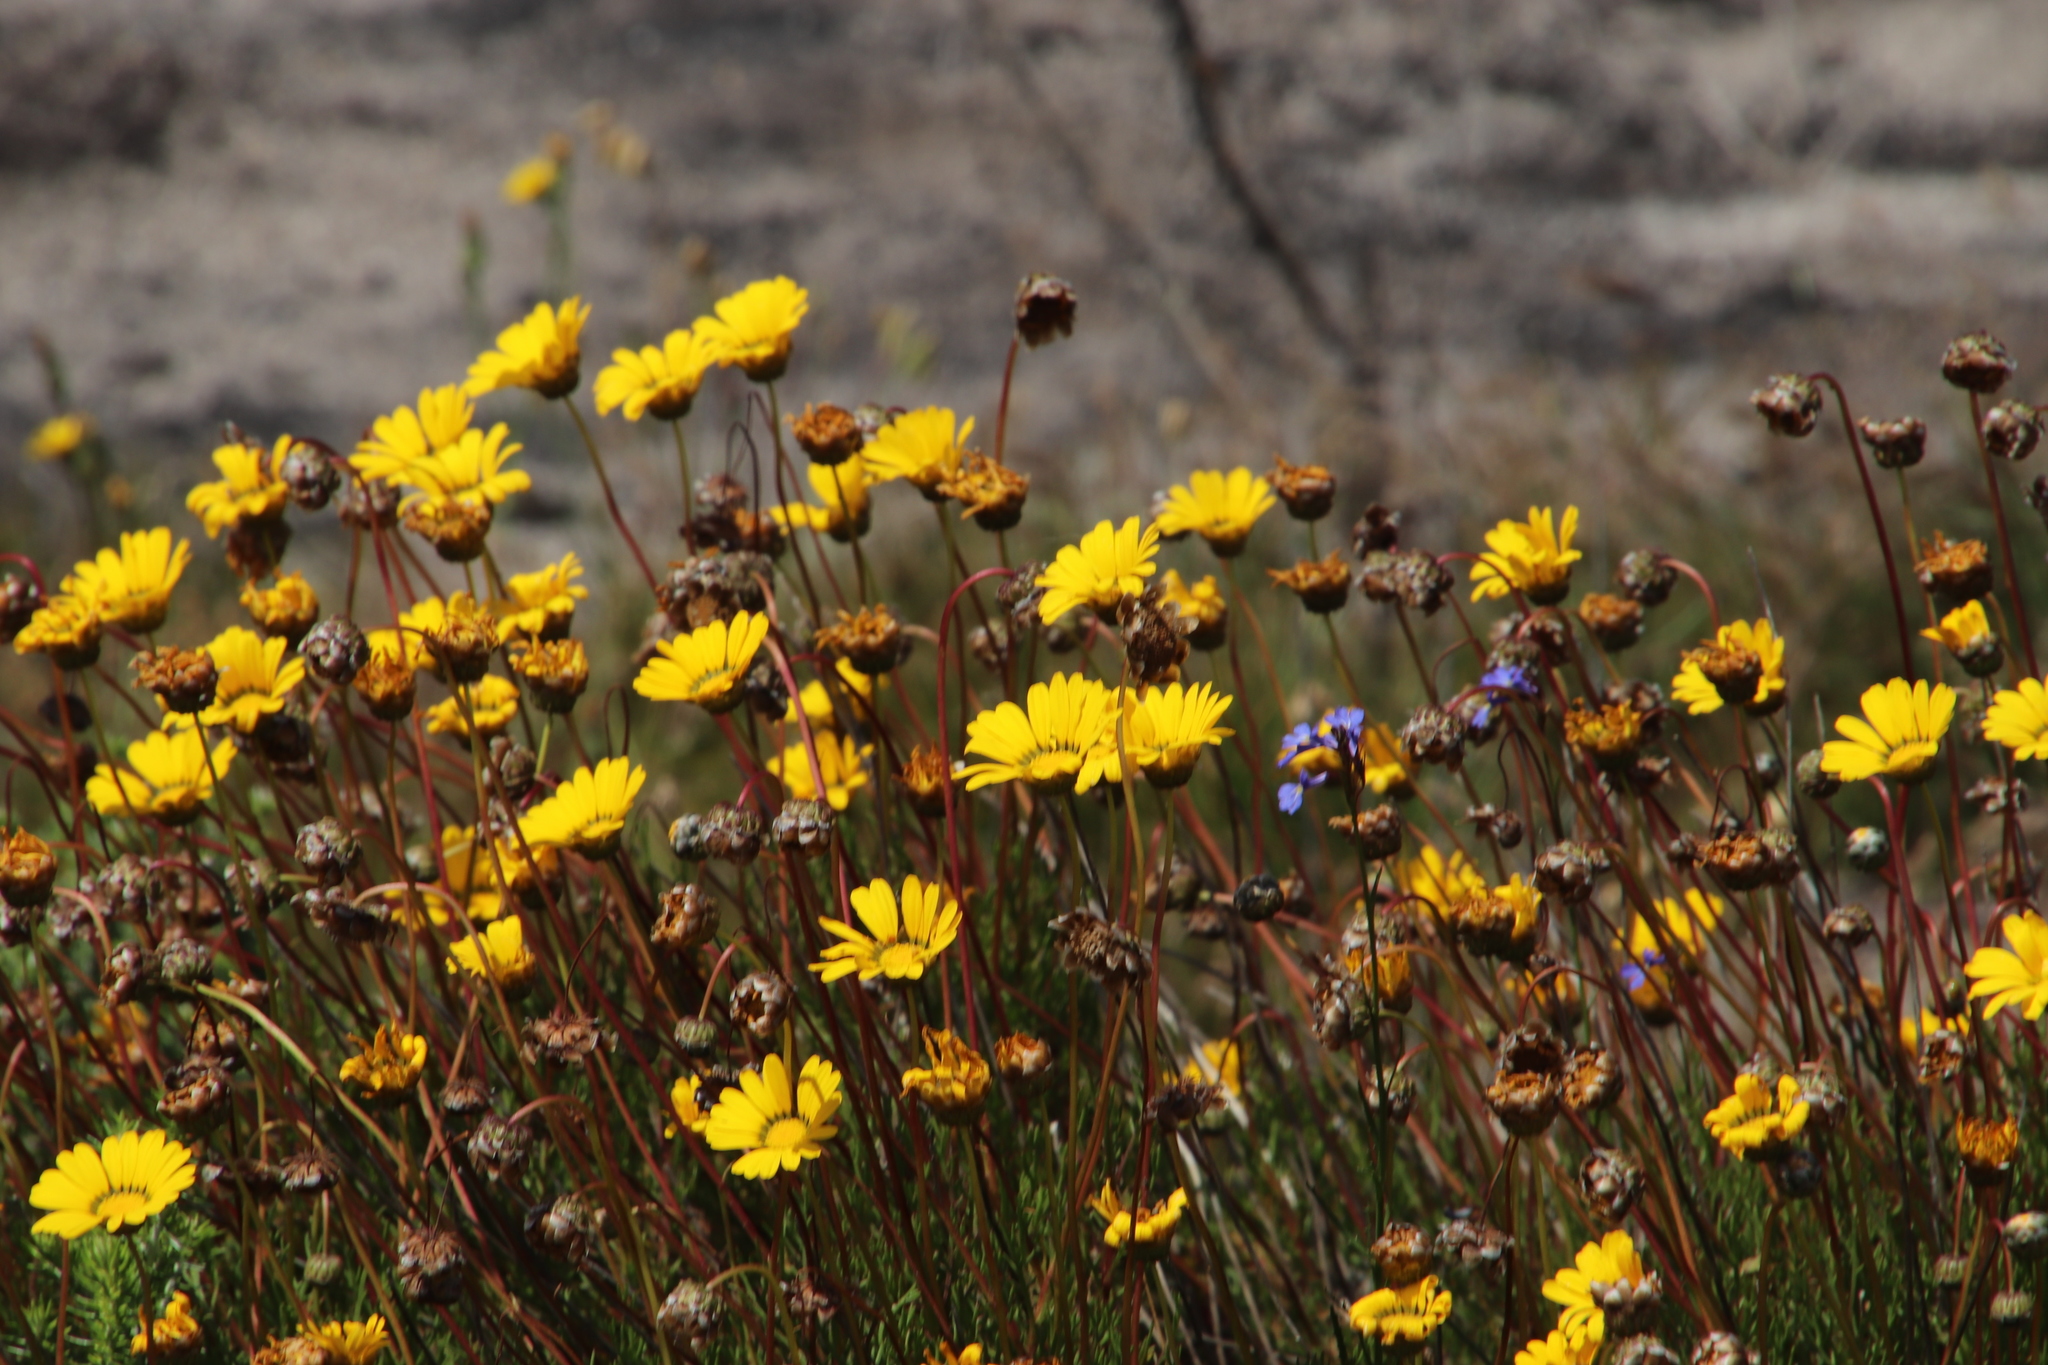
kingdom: Plantae
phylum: Tracheophyta
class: Magnoliopsida
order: Asterales
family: Asteraceae
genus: Ursinia
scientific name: Ursinia paleacea
